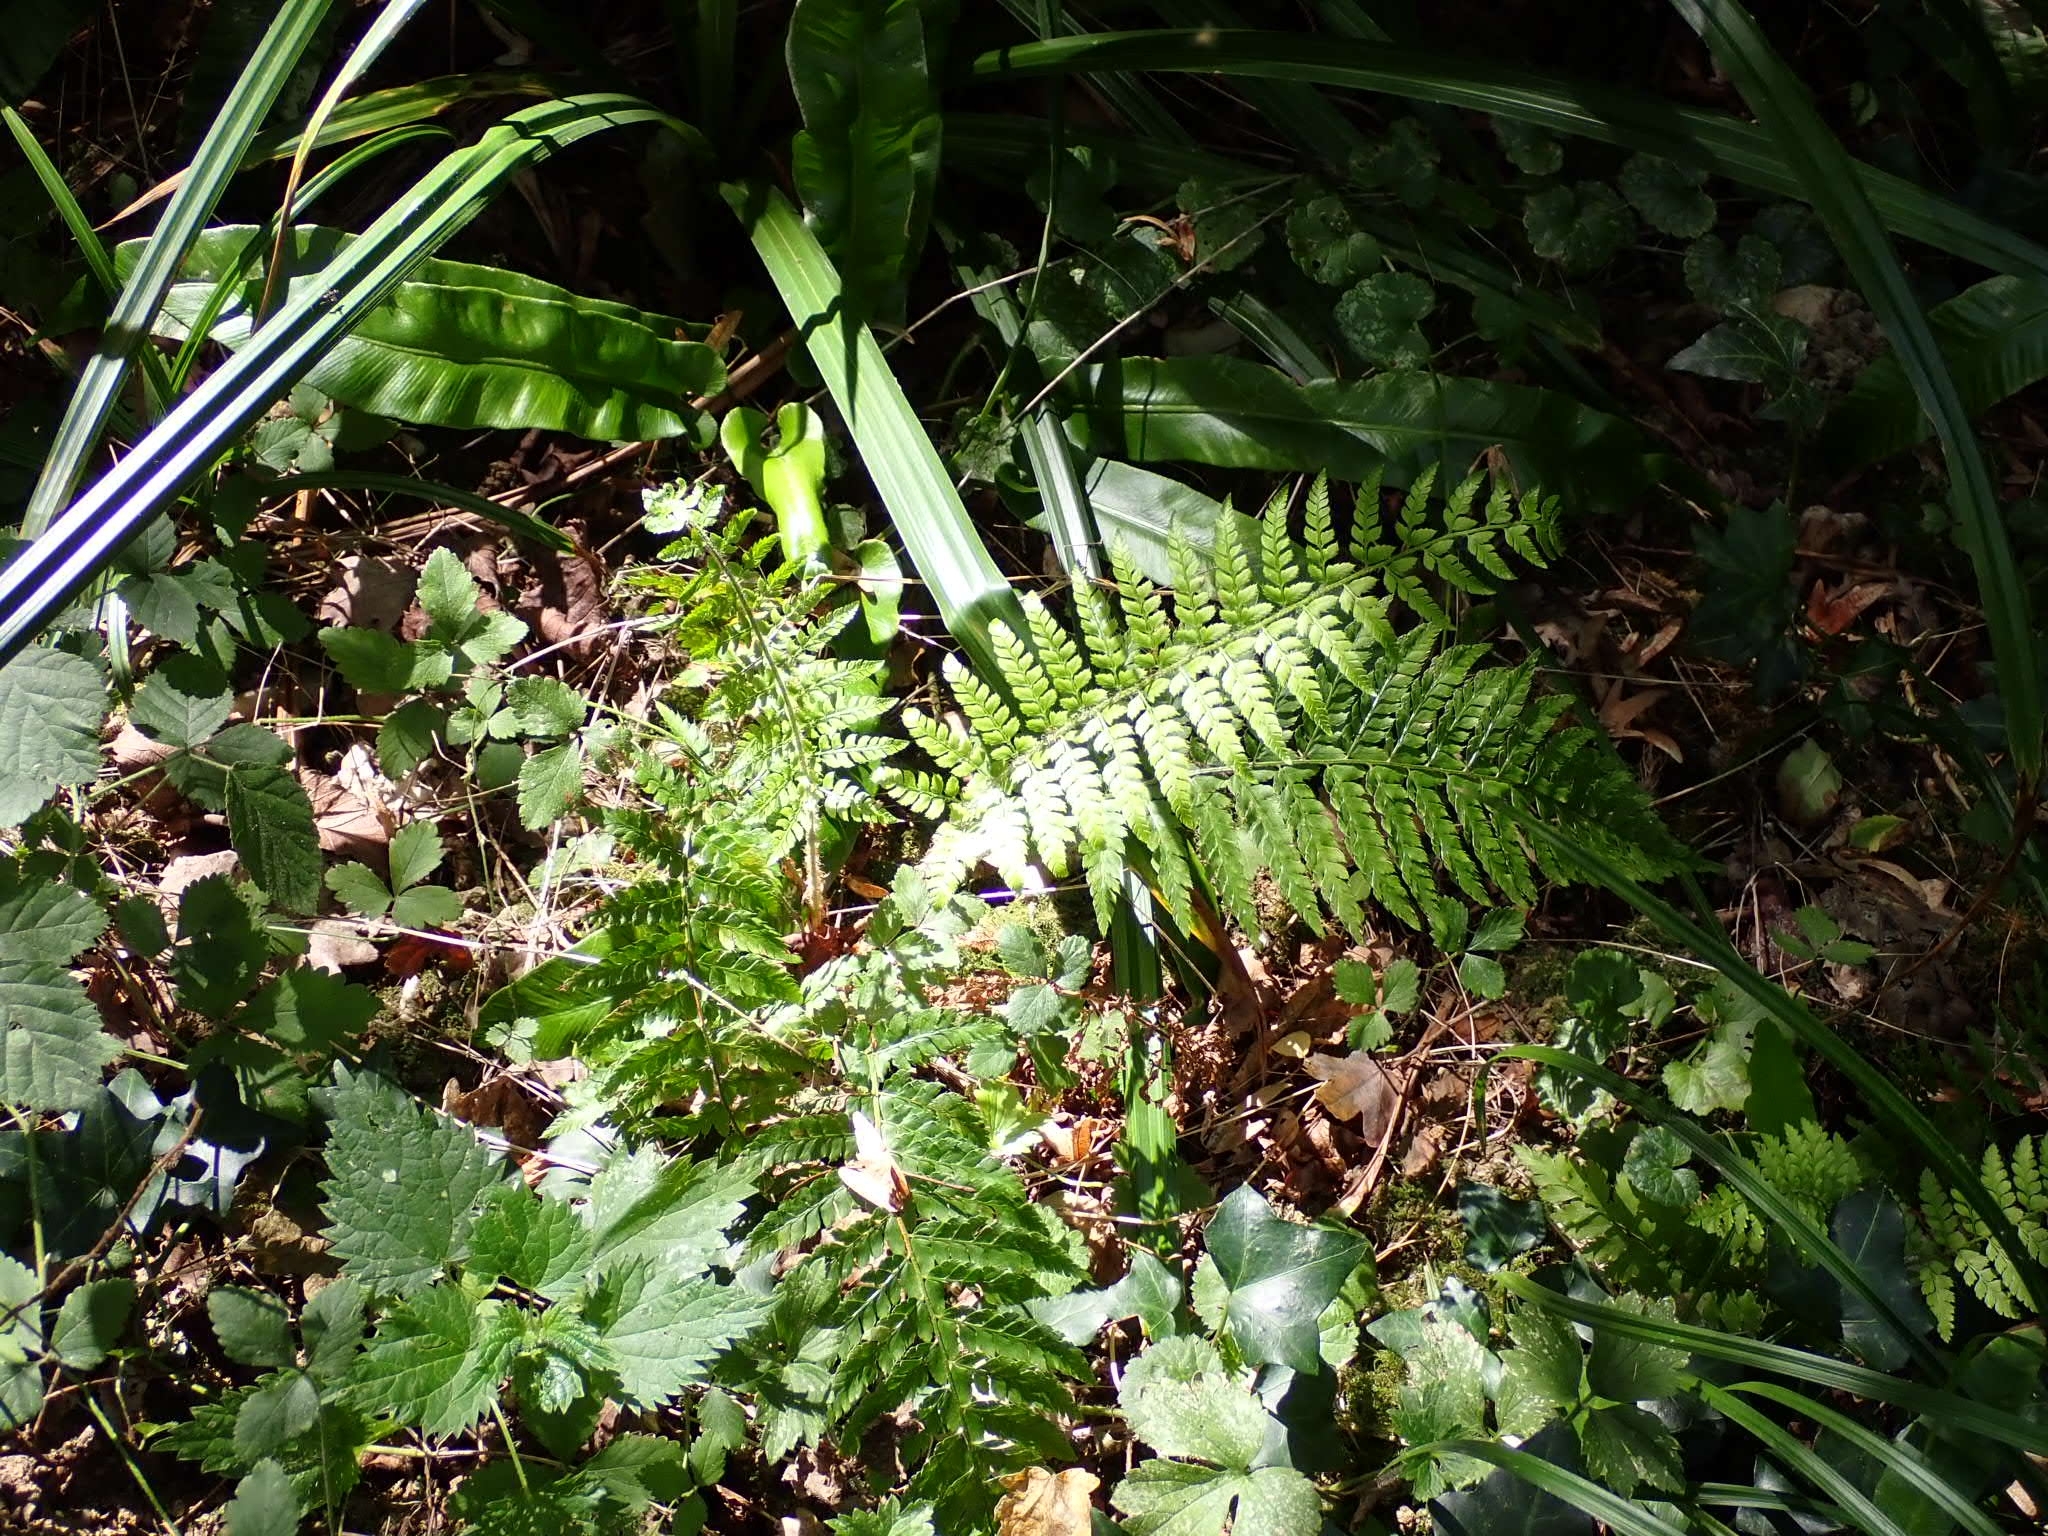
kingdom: Plantae
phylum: Tracheophyta
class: Polypodiopsida
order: Polypodiales
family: Dryopteridaceae
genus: Polystichum
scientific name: Polystichum setiferum
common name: Soft shield-fern
